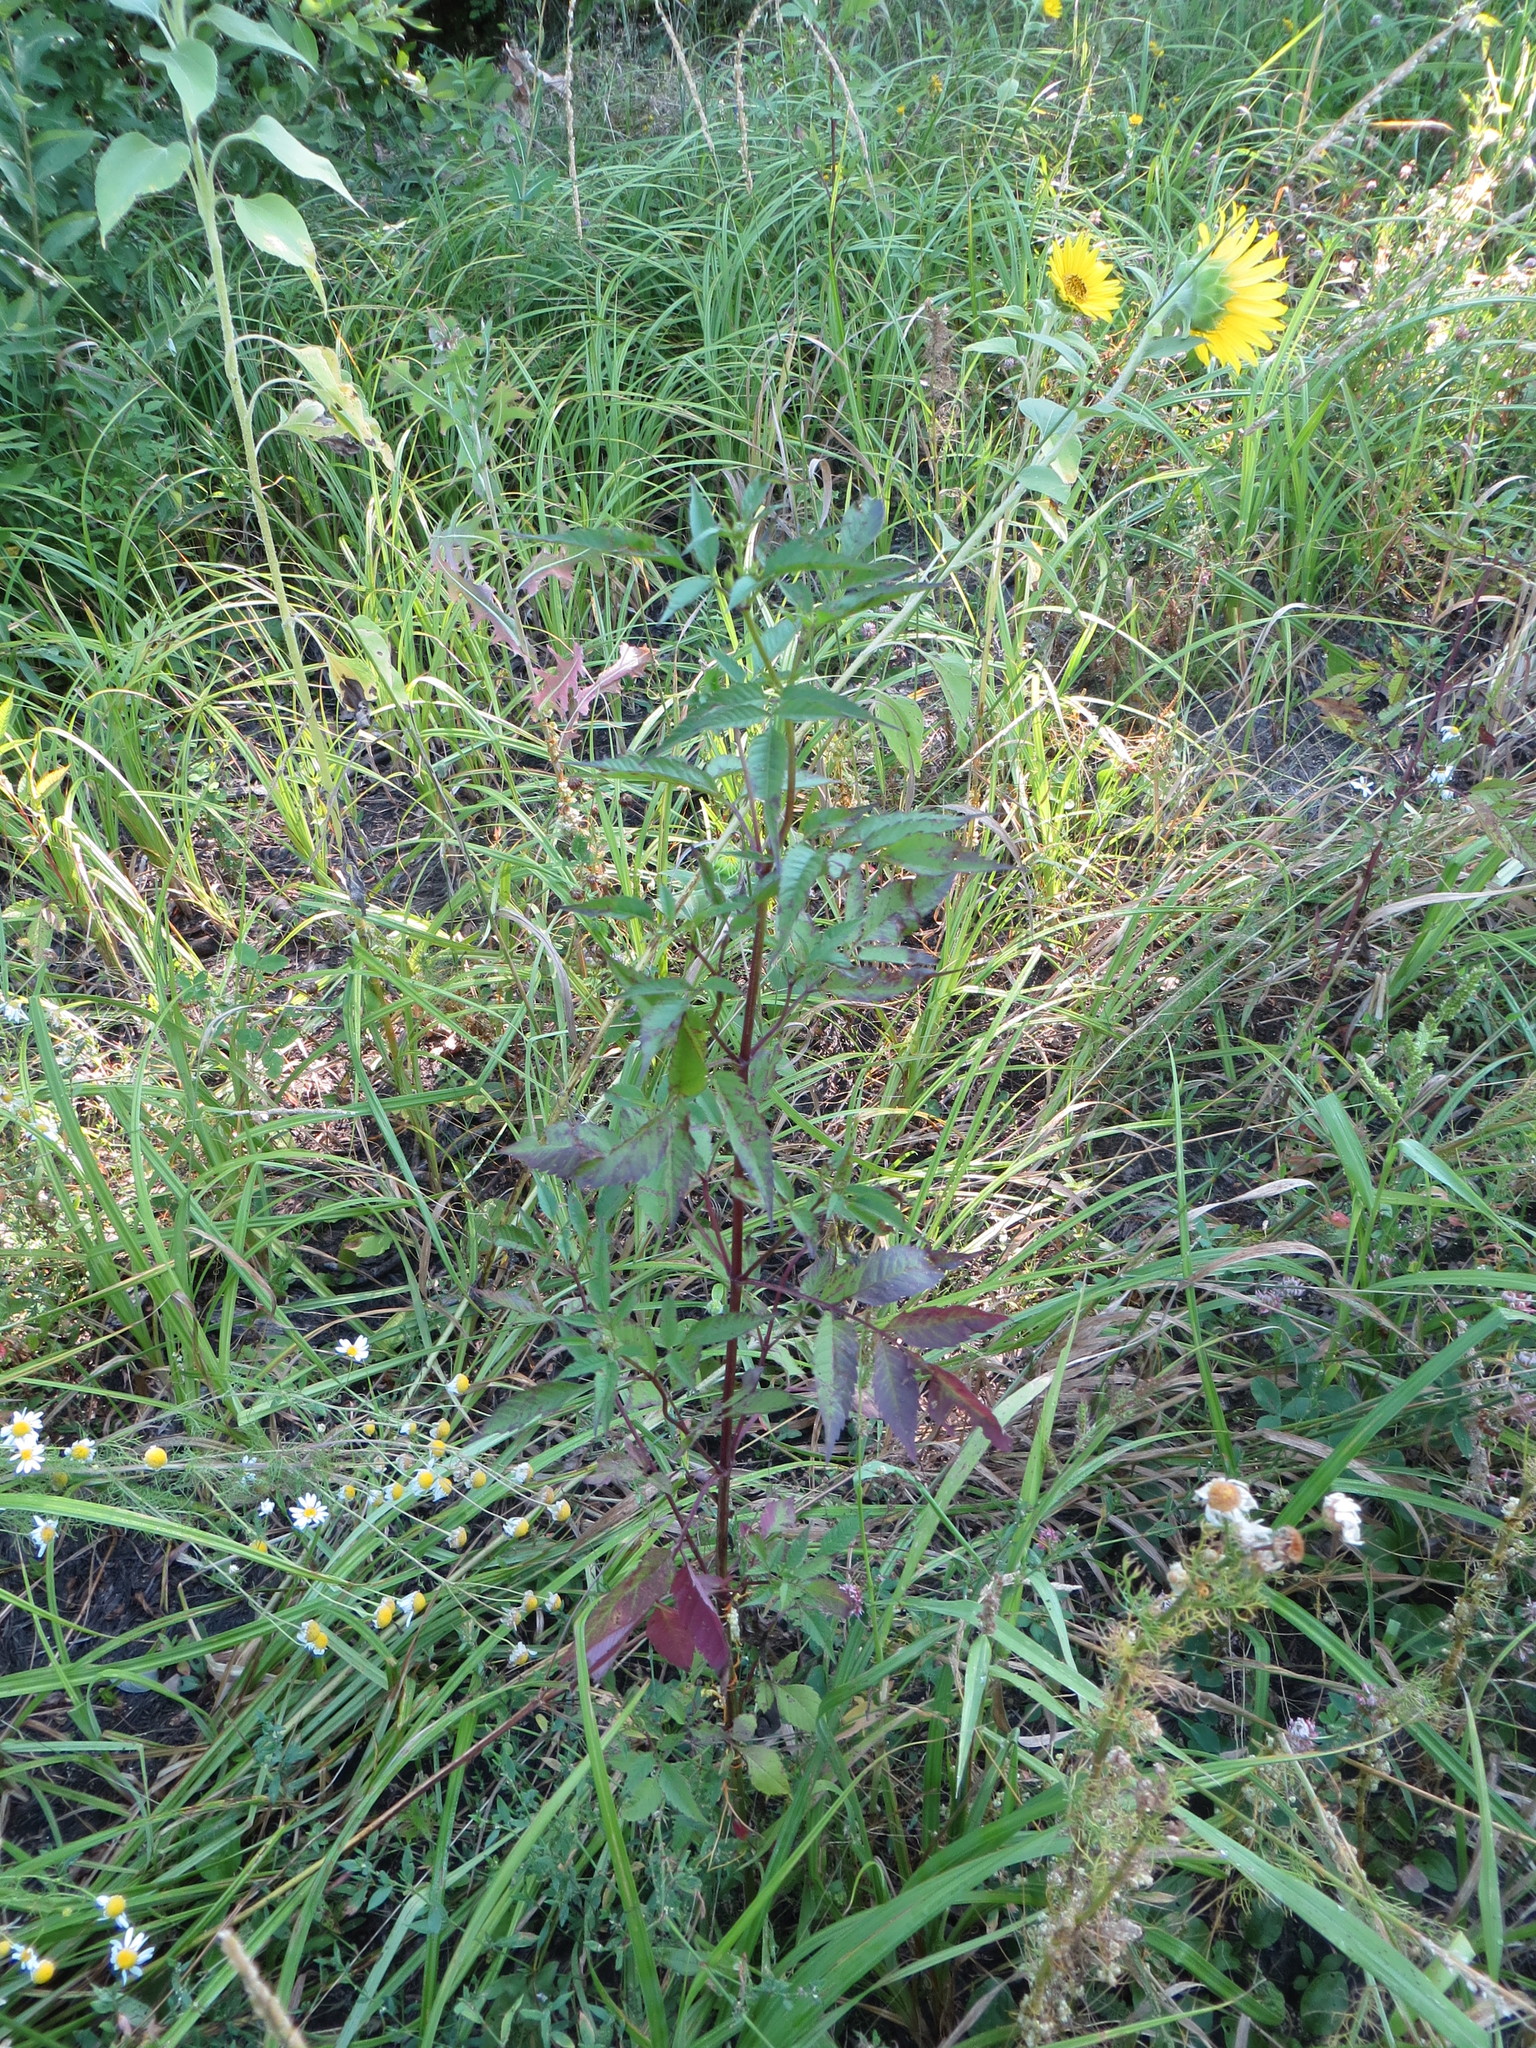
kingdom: Plantae
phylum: Tracheophyta
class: Magnoliopsida
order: Asterales
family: Asteraceae
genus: Bidens
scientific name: Bidens frondosa
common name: Beggarticks
